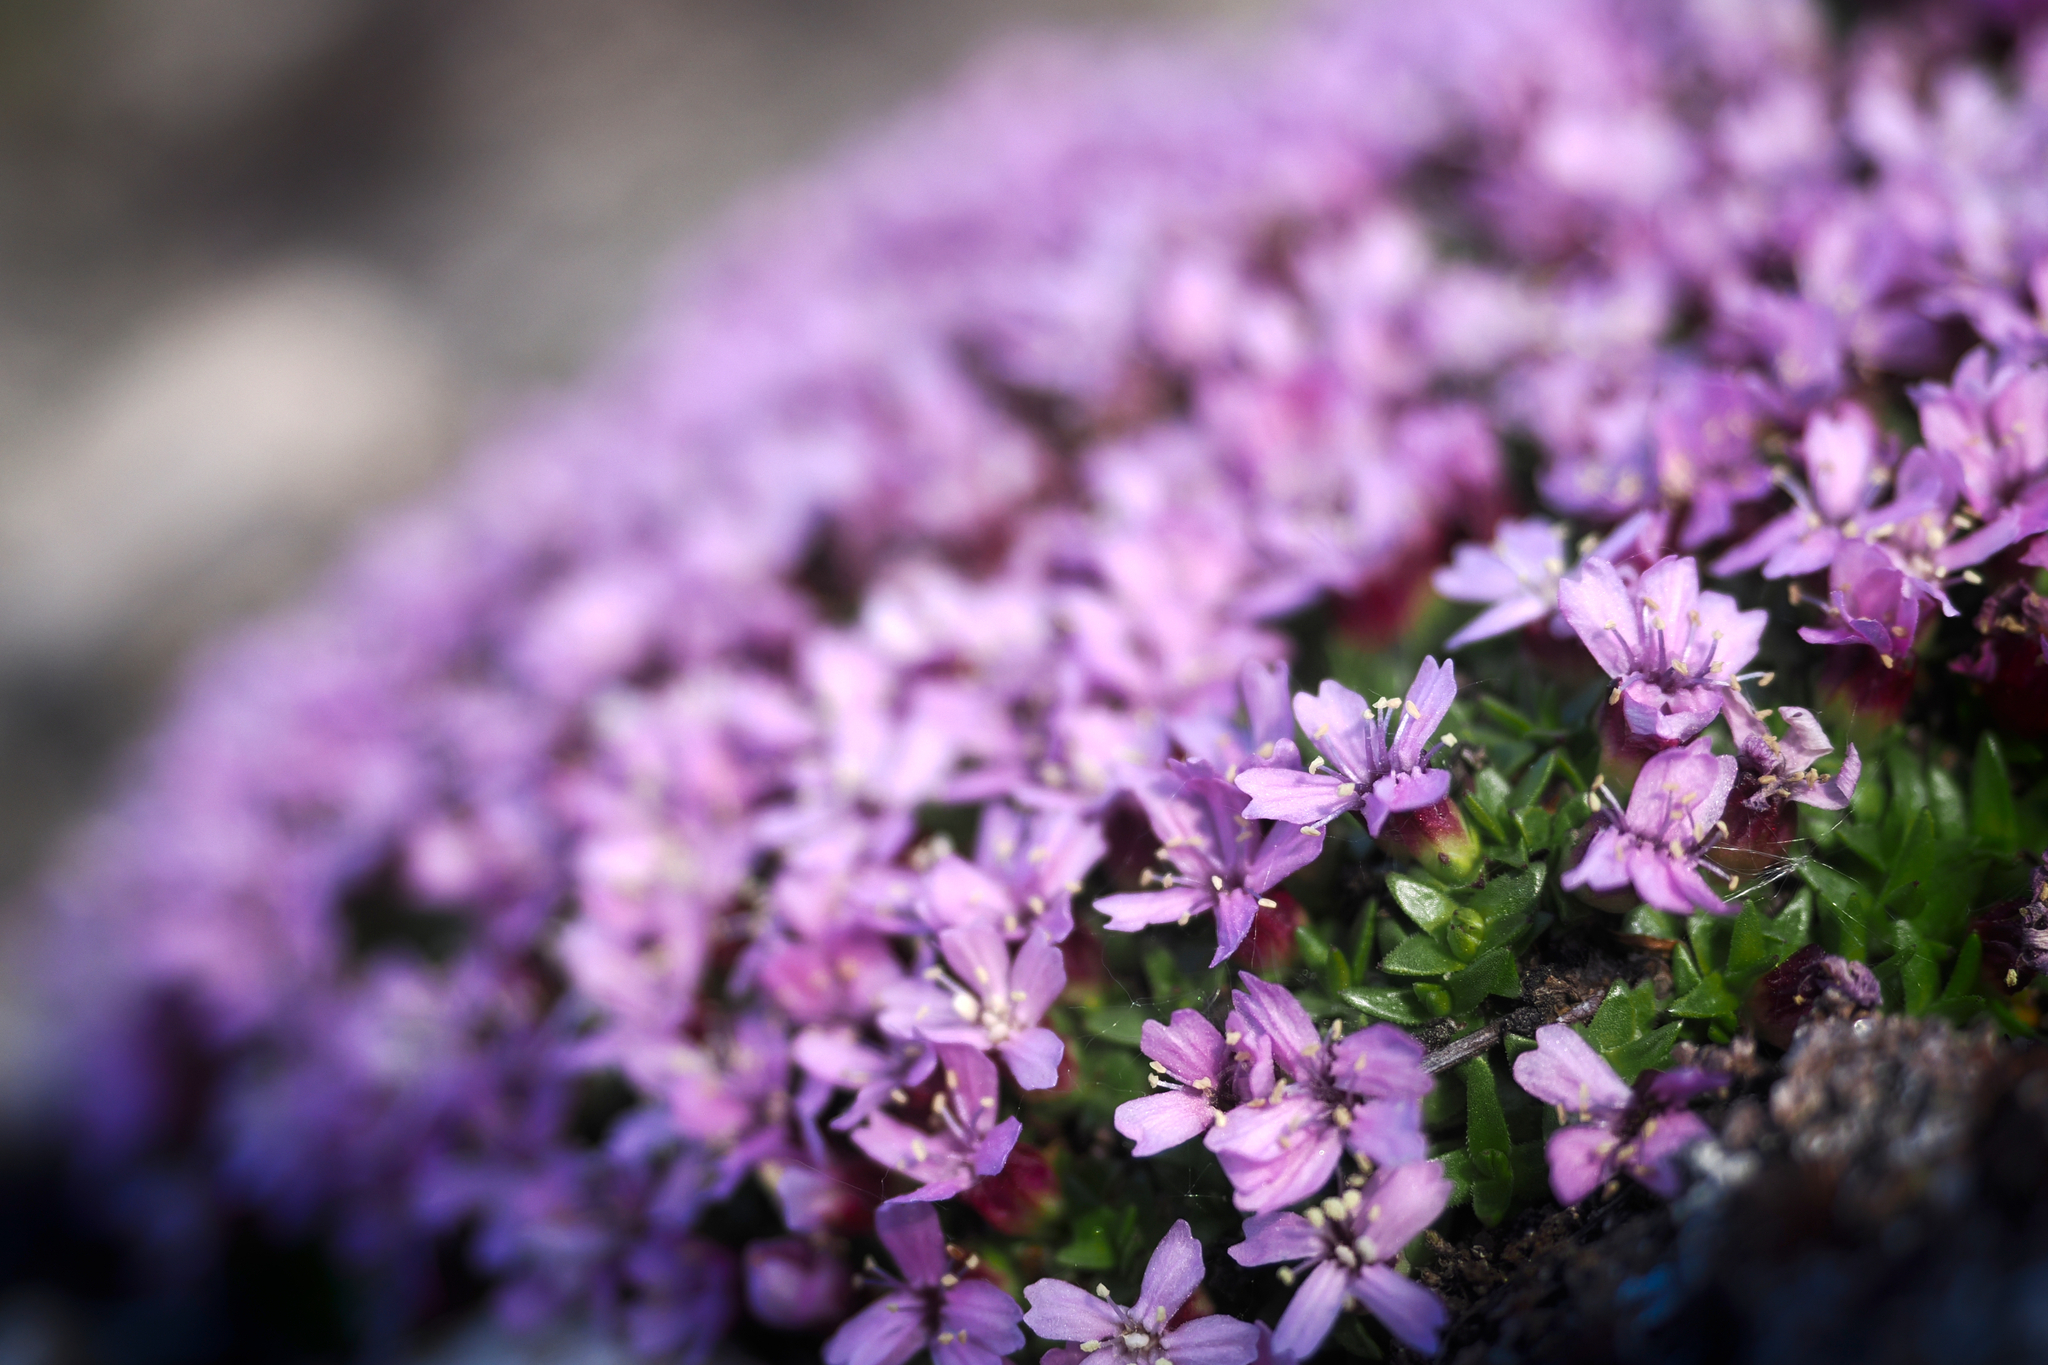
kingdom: Plantae
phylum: Tracheophyta
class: Magnoliopsida
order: Caryophyllales
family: Caryophyllaceae
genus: Silene
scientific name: Silene acaulis
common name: Moss campion
